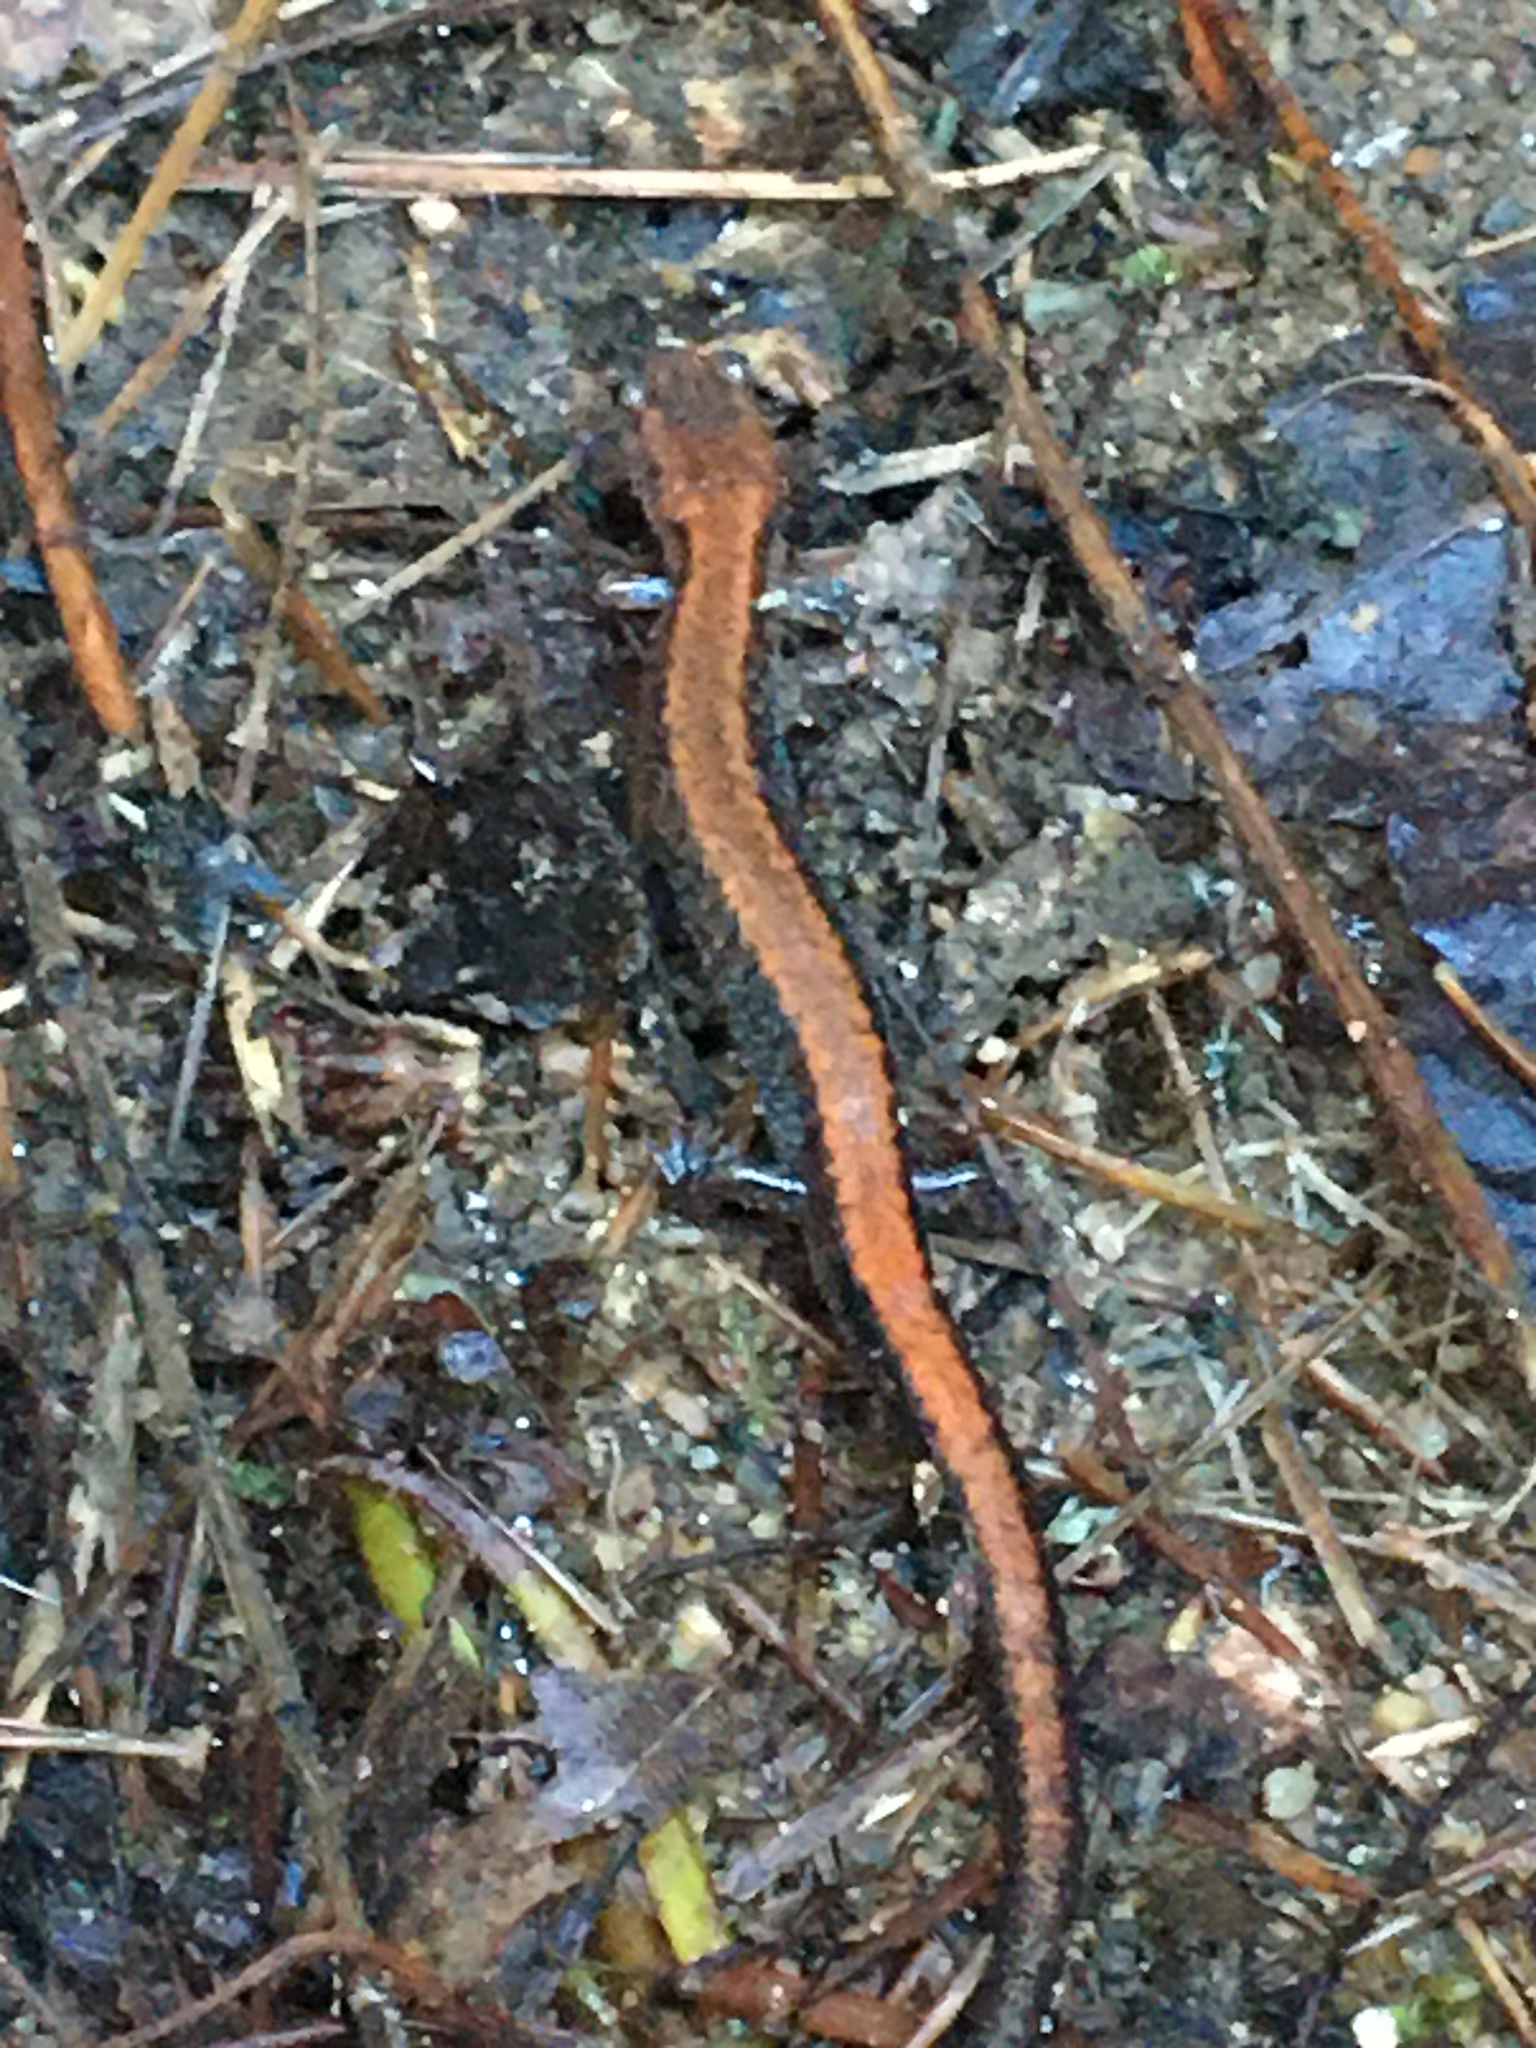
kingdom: Animalia
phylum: Chordata
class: Amphibia
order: Caudata
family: Plethodontidae
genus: Plethodon
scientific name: Plethodon cinereus
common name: Redback salamander
